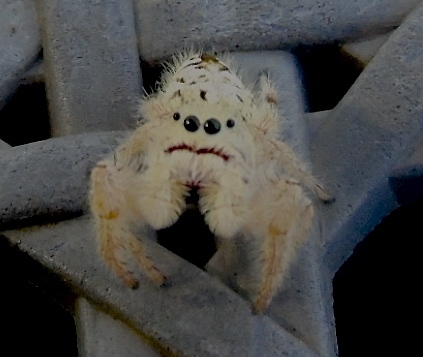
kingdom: Animalia
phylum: Arthropoda
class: Arachnida
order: Araneae
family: Salticidae
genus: Paraphidippus
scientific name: Paraphidippus fartilis
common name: Jumping spiders
